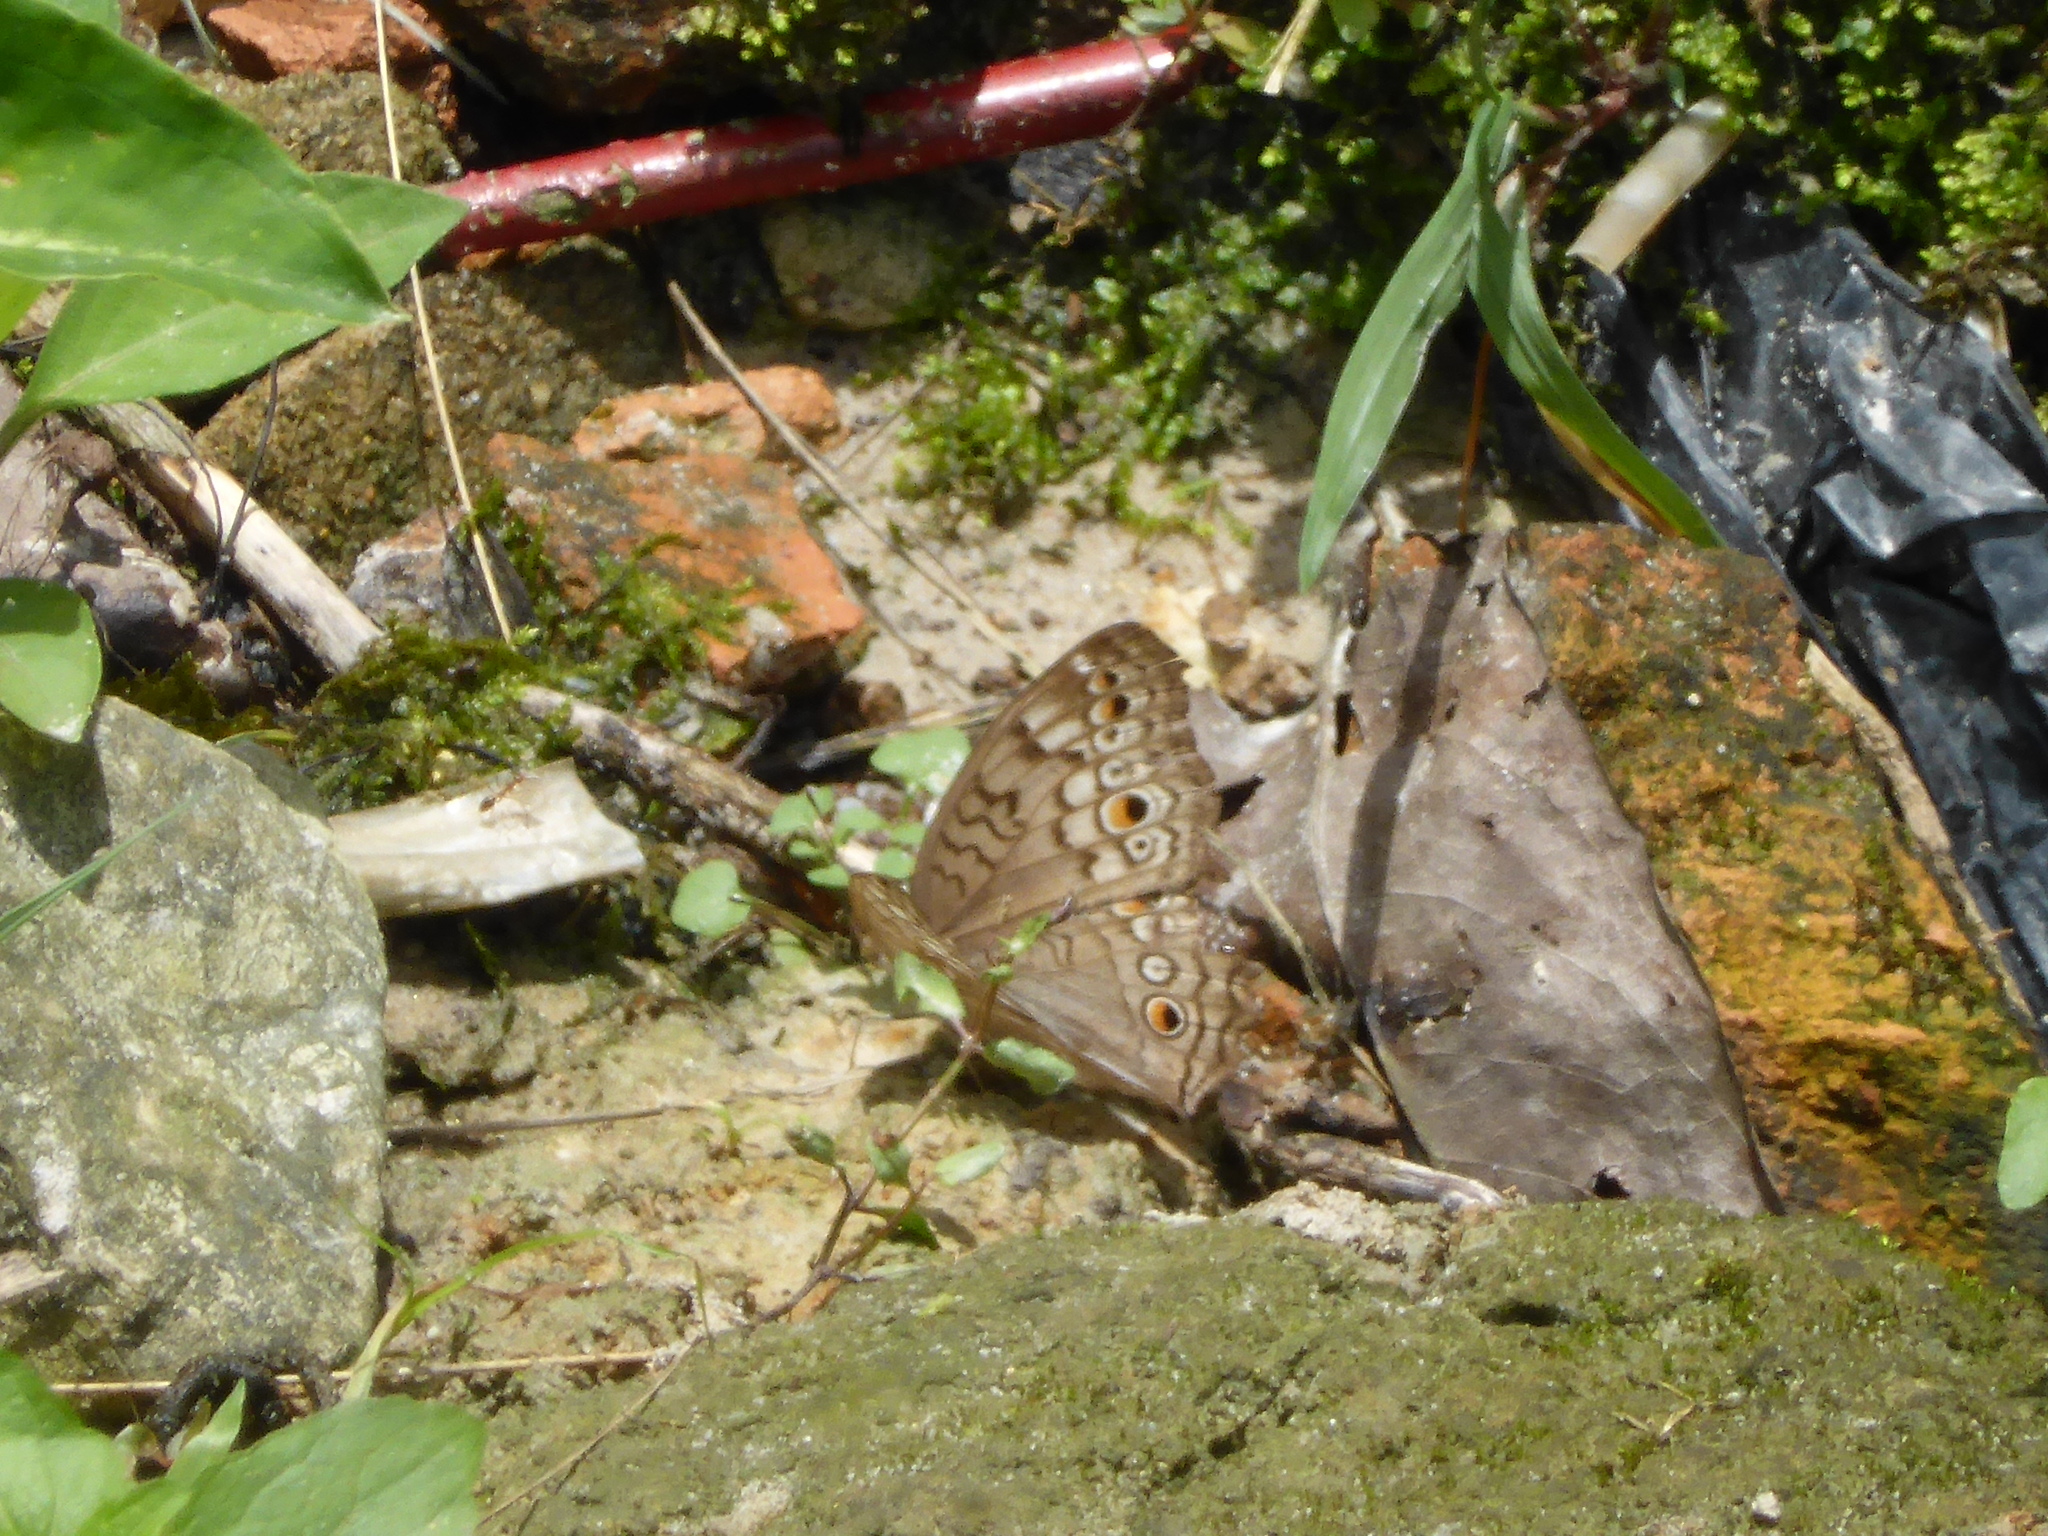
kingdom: Animalia
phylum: Arthropoda
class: Insecta
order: Lepidoptera
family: Nymphalidae
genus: Junonia
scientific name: Junonia atlites
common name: Grey pansy
